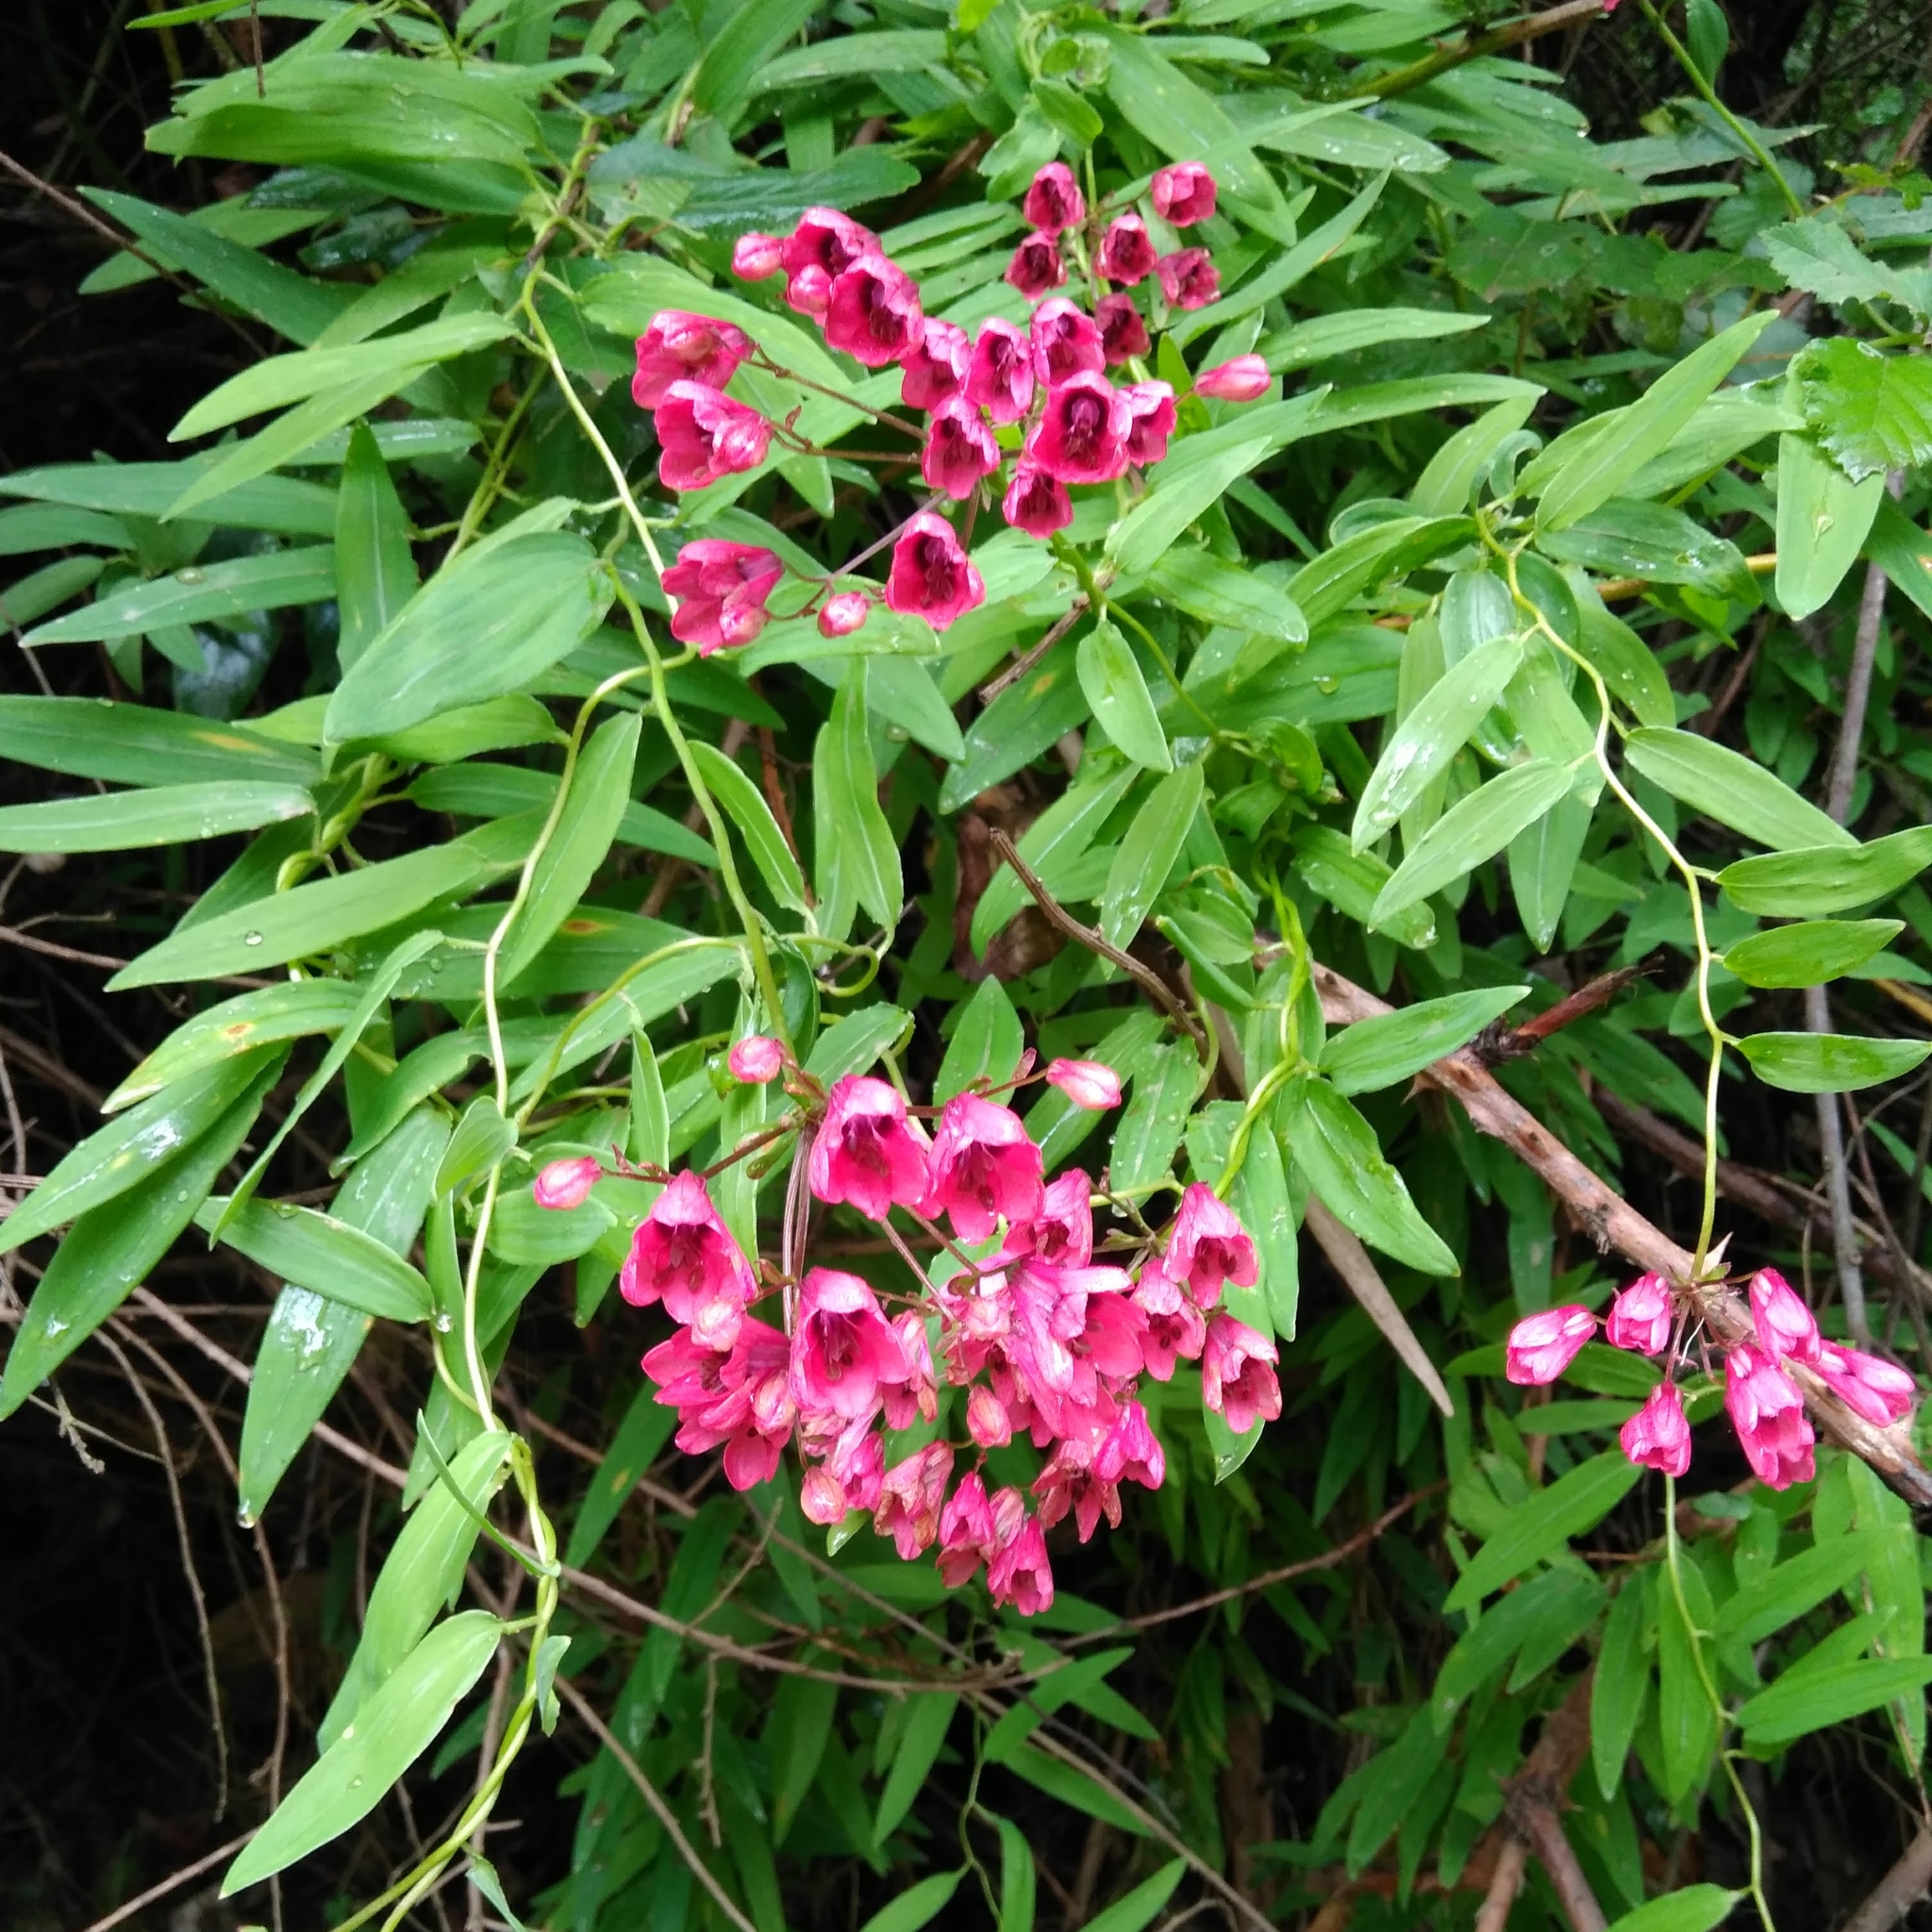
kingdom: Plantae
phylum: Tracheophyta
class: Liliopsida
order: Liliales
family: Alstroemeriaceae
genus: Bomarea
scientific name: Bomarea salsilla
